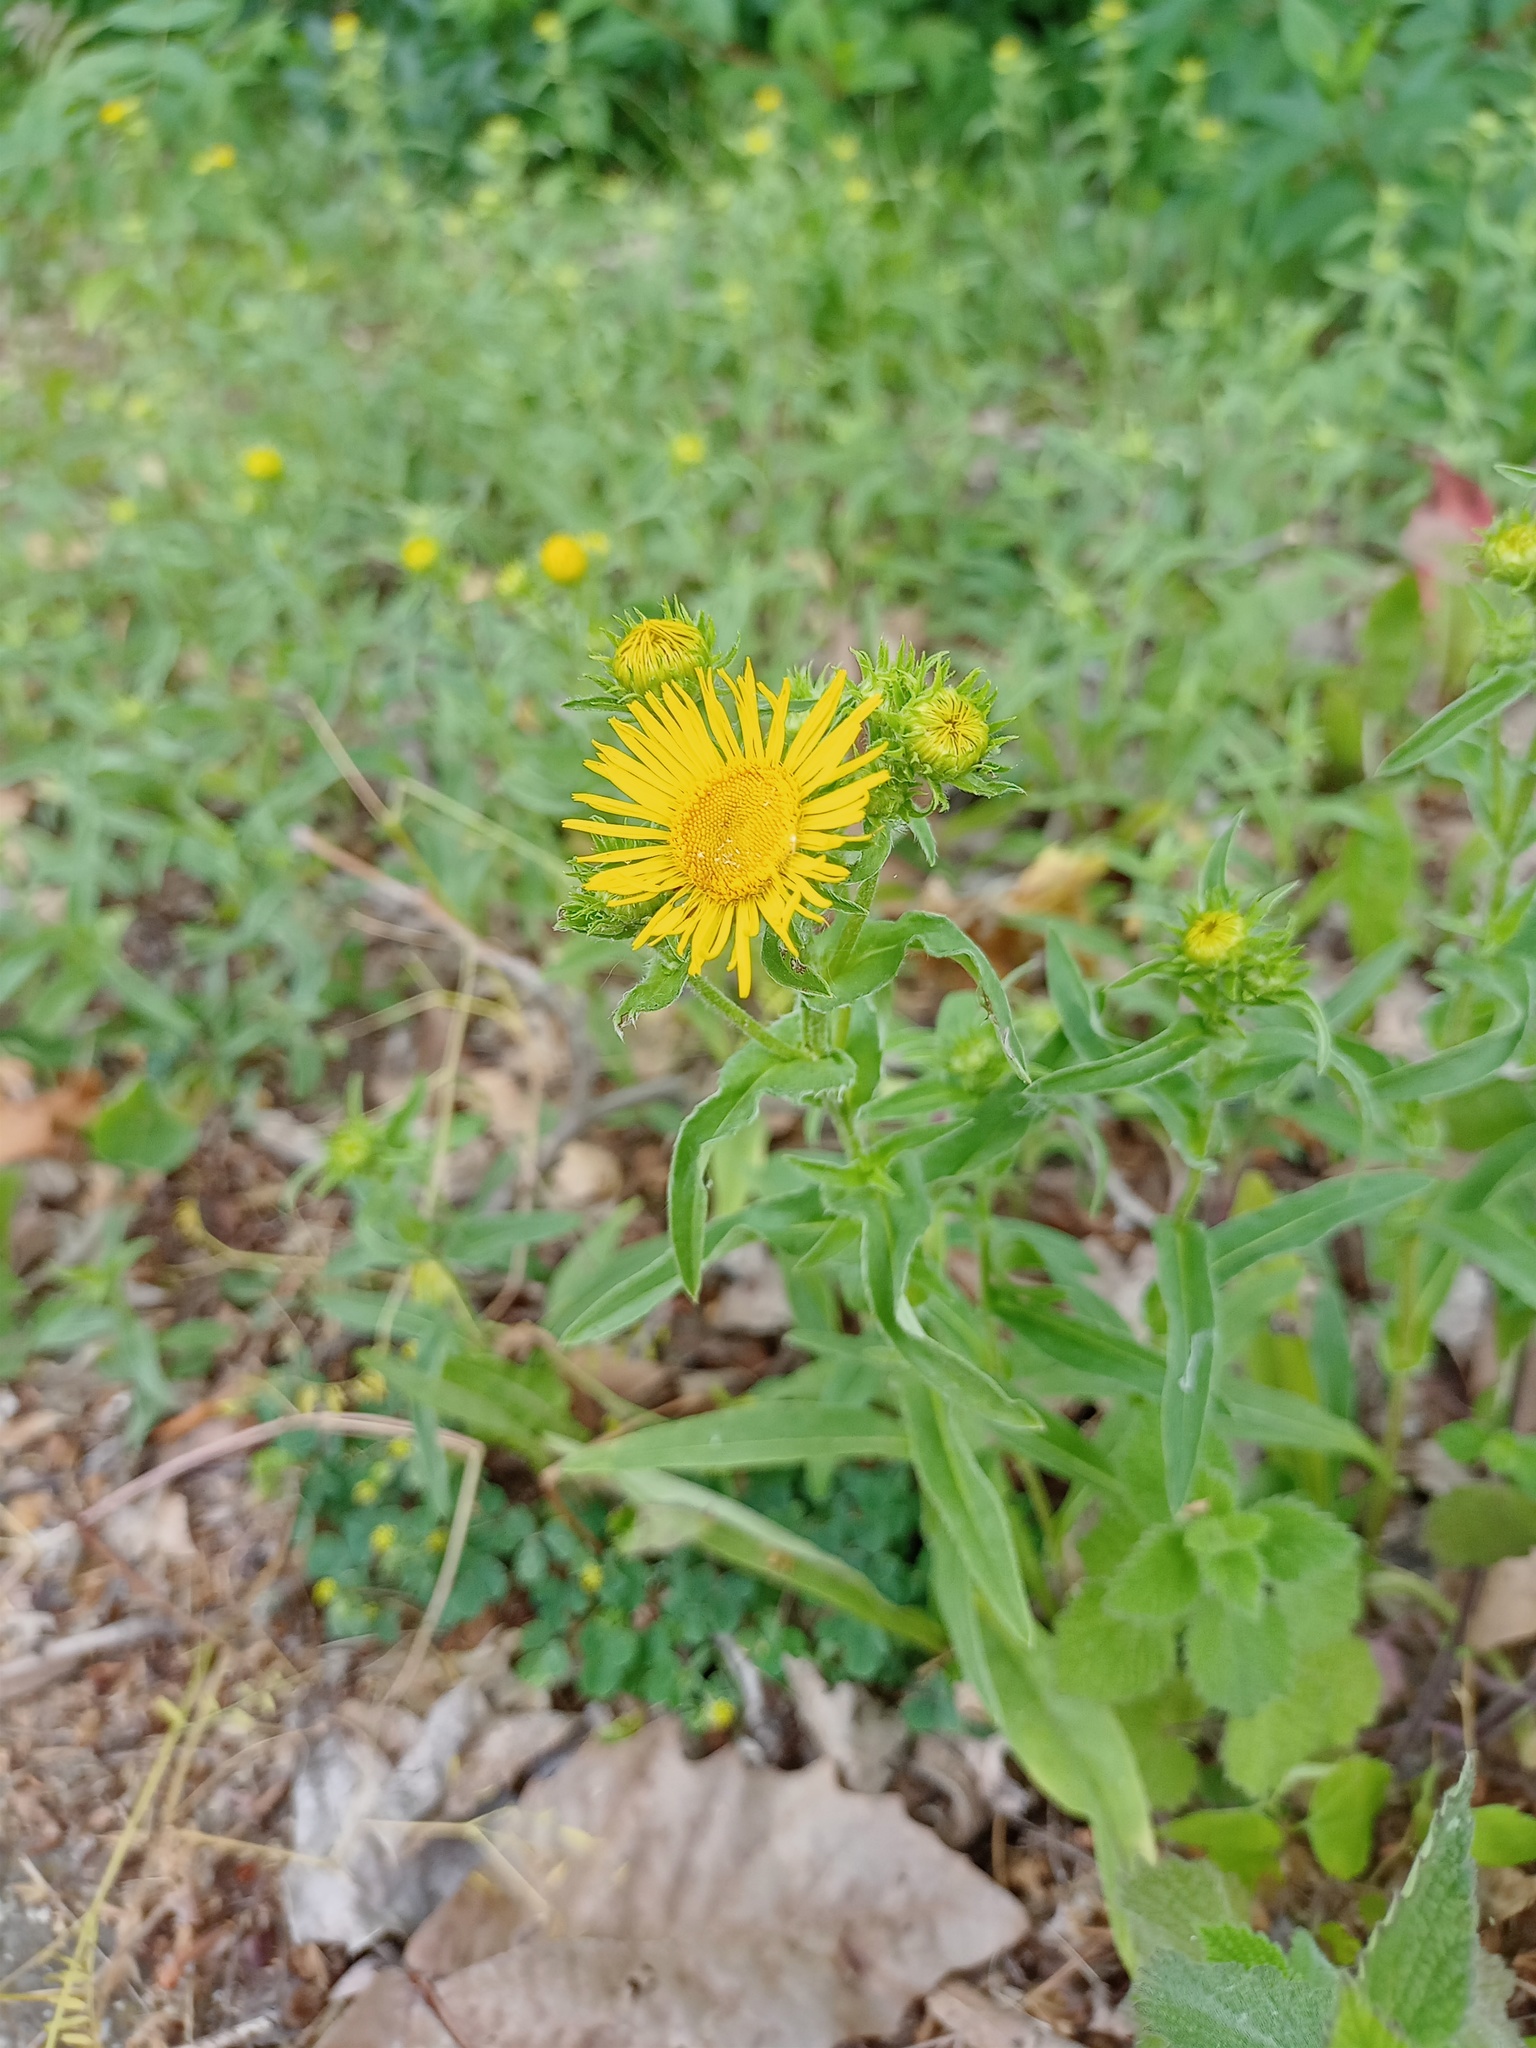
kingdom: Plantae
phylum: Tracheophyta
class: Magnoliopsida
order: Asterales
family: Asteraceae
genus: Pentanema
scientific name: Pentanema salicinum
